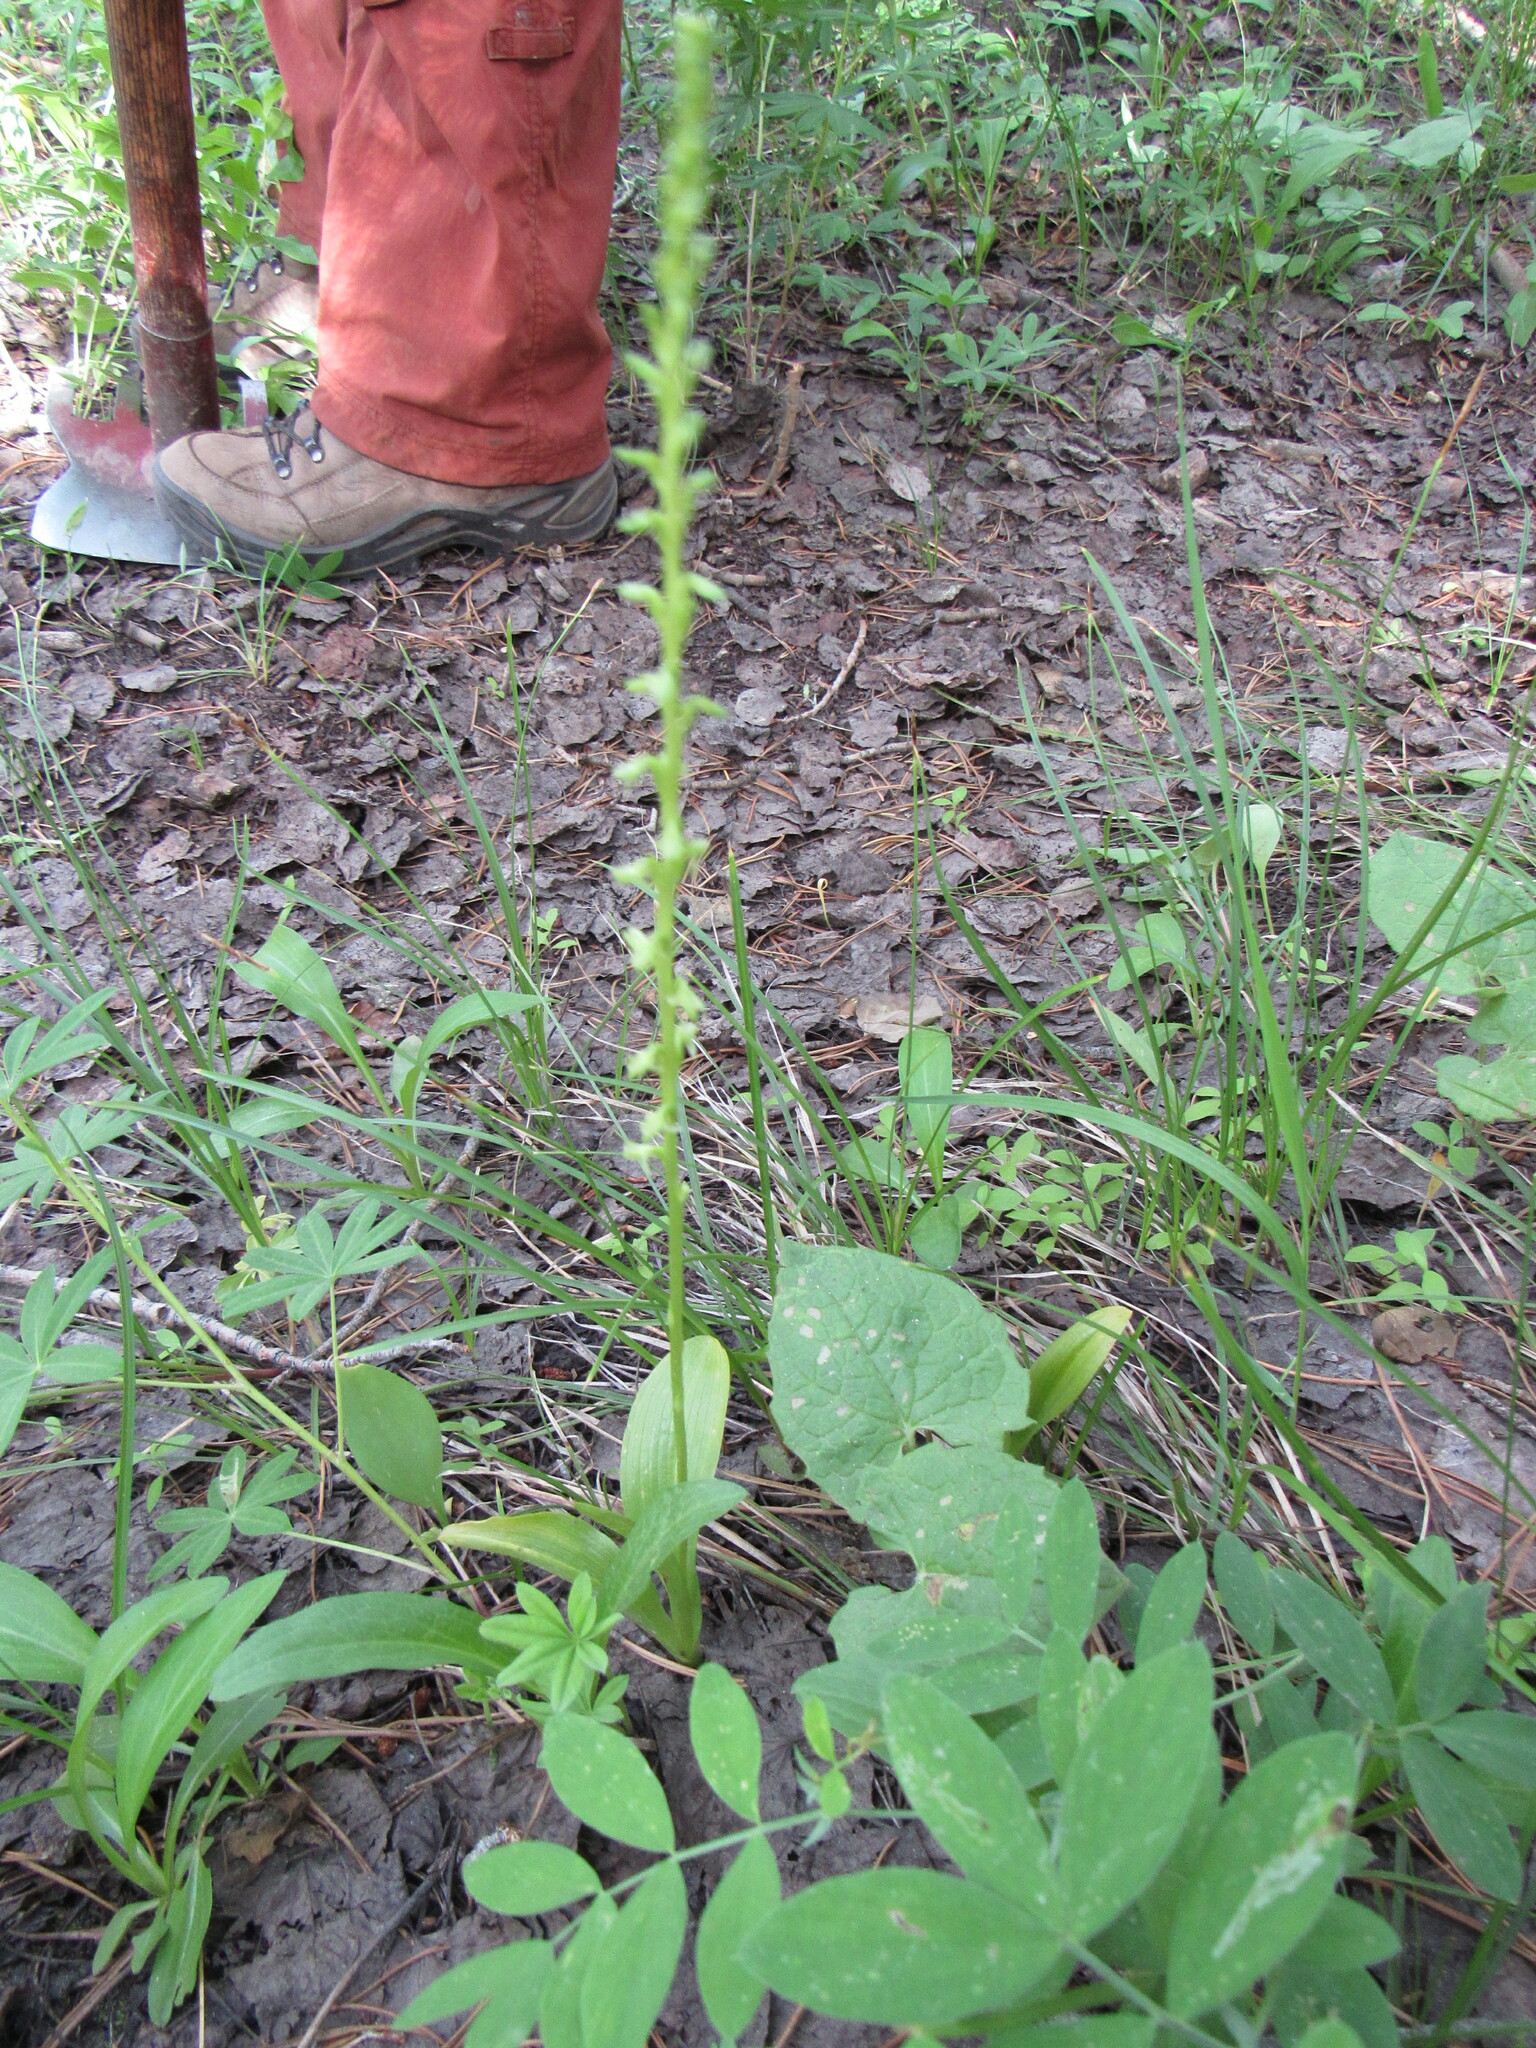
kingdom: Plantae
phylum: Tracheophyta
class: Liliopsida
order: Asparagales
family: Orchidaceae
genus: Platanthera
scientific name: Platanthera unalascensis
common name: Alaska bog orchid
